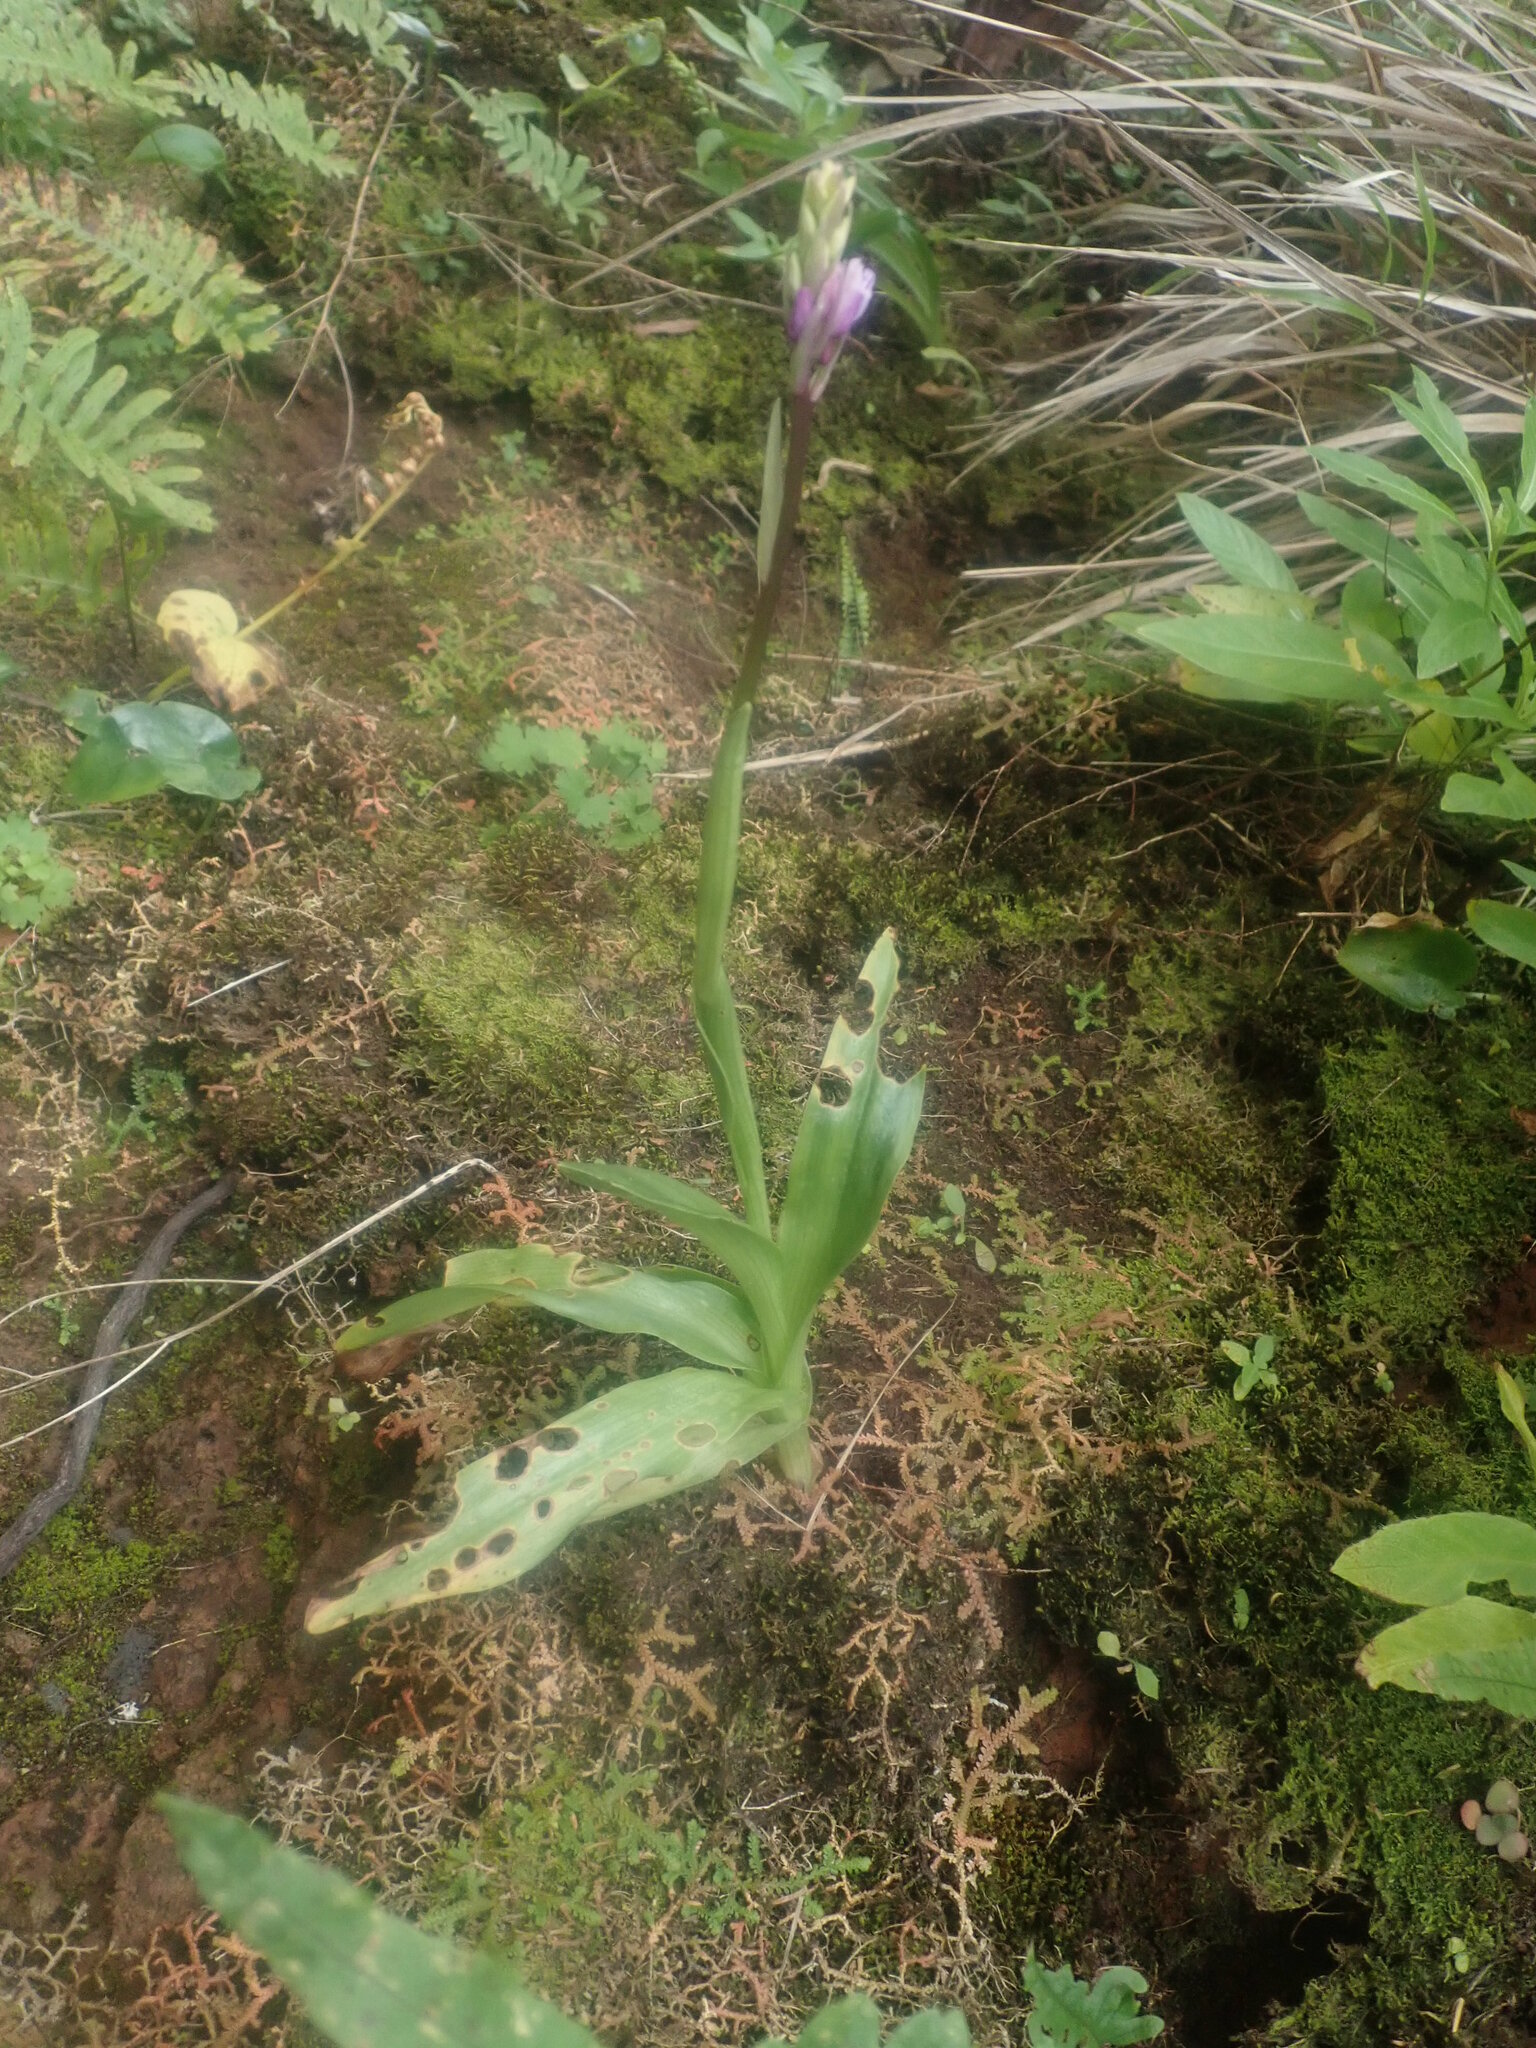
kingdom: Plantae
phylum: Tracheophyta
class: Liliopsida
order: Asparagales
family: Orchidaceae
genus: Orchis
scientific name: Orchis mascula
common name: Early-purple orchid
